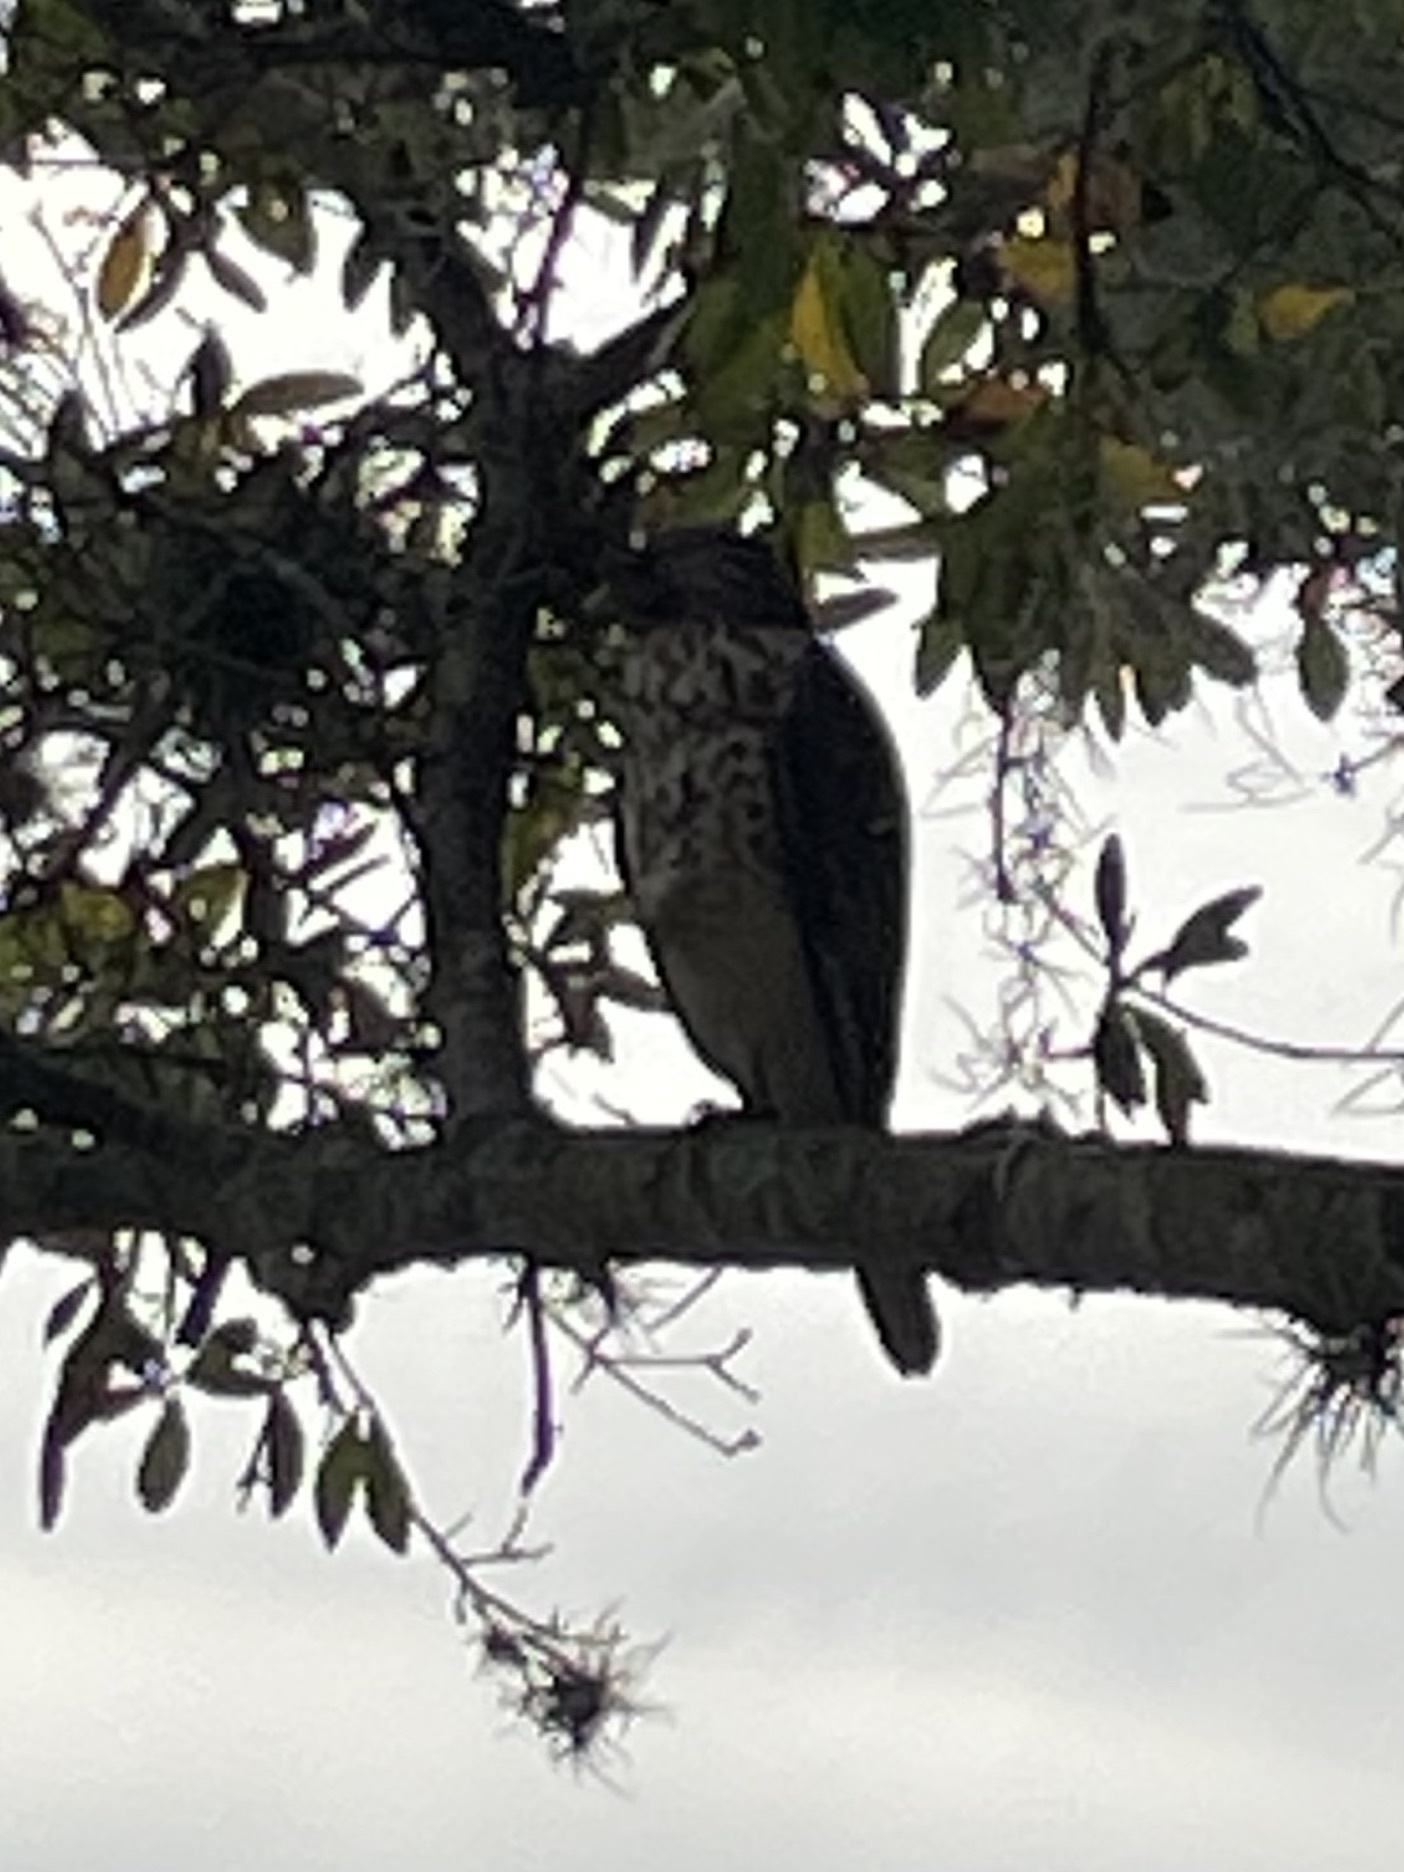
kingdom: Animalia
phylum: Chordata
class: Aves
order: Accipitriformes
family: Accipitridae
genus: Buteo
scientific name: Buteo lineatus
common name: Red-shouldered hawk
